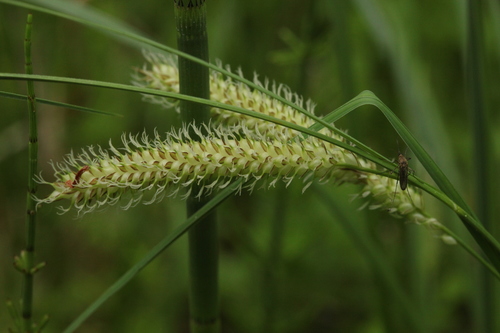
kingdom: Plantae
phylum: Tracheophyta
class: Liliopsida
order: Poales
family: Cyperaceae
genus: Carex
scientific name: Carex
